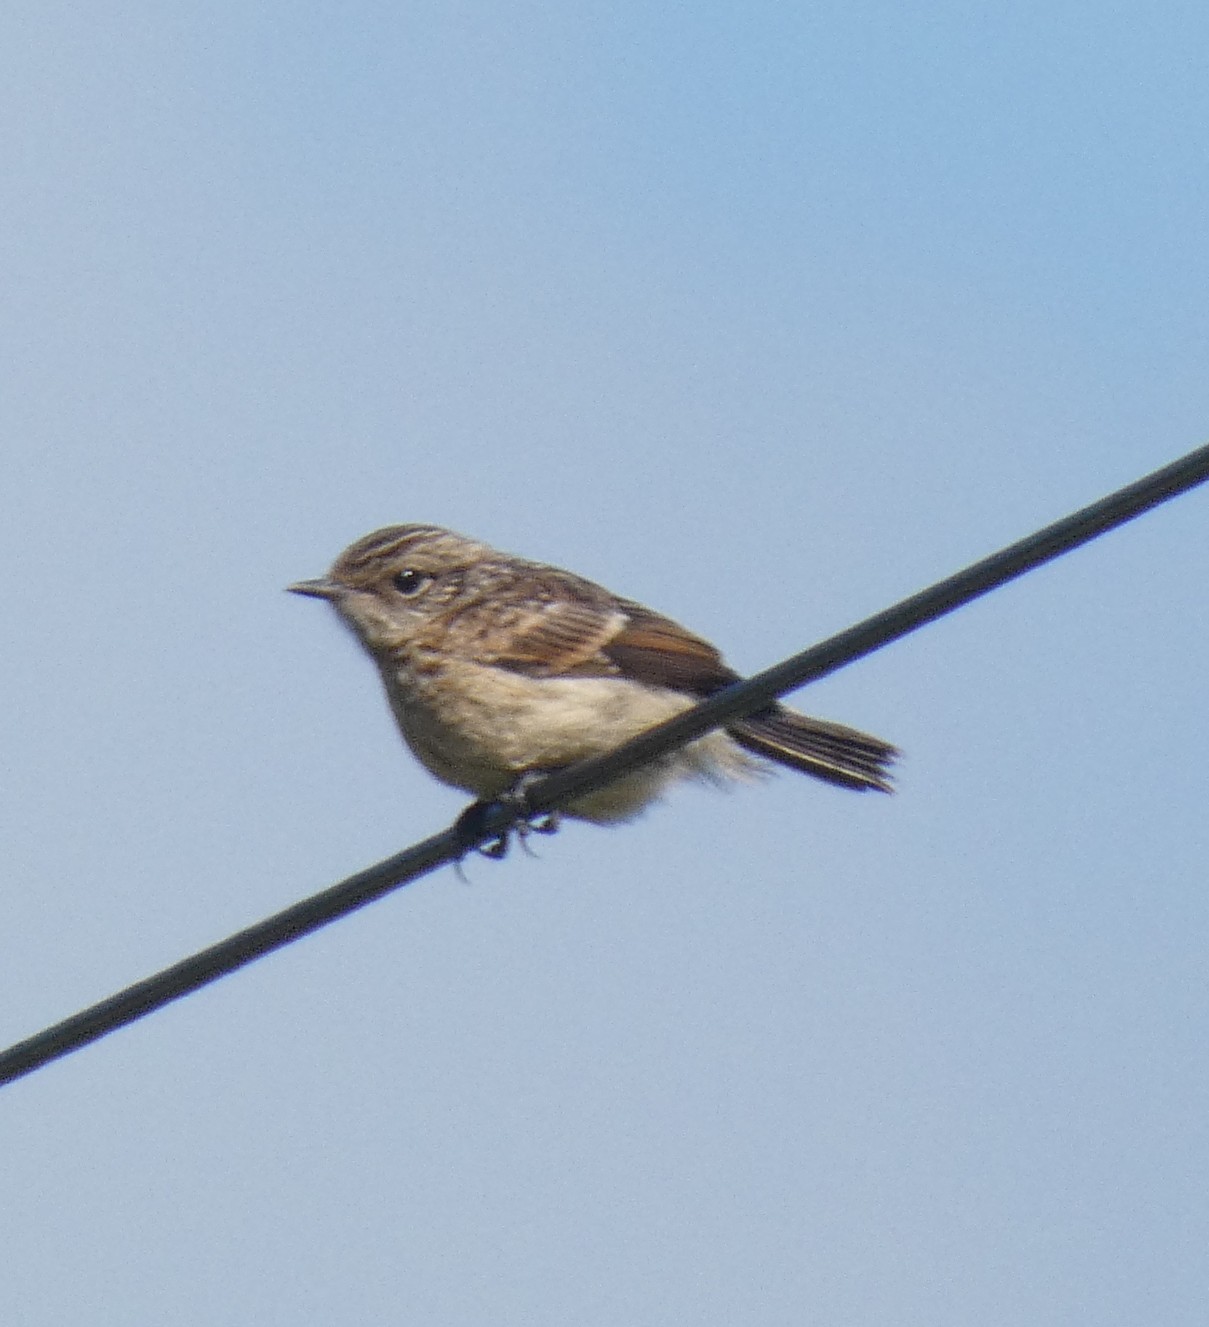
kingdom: Animalia
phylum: Chordata
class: Aves
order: Passeriformes
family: Muscicapidae
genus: Saxicola
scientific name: Saxicola rubicola
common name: European stonechat
